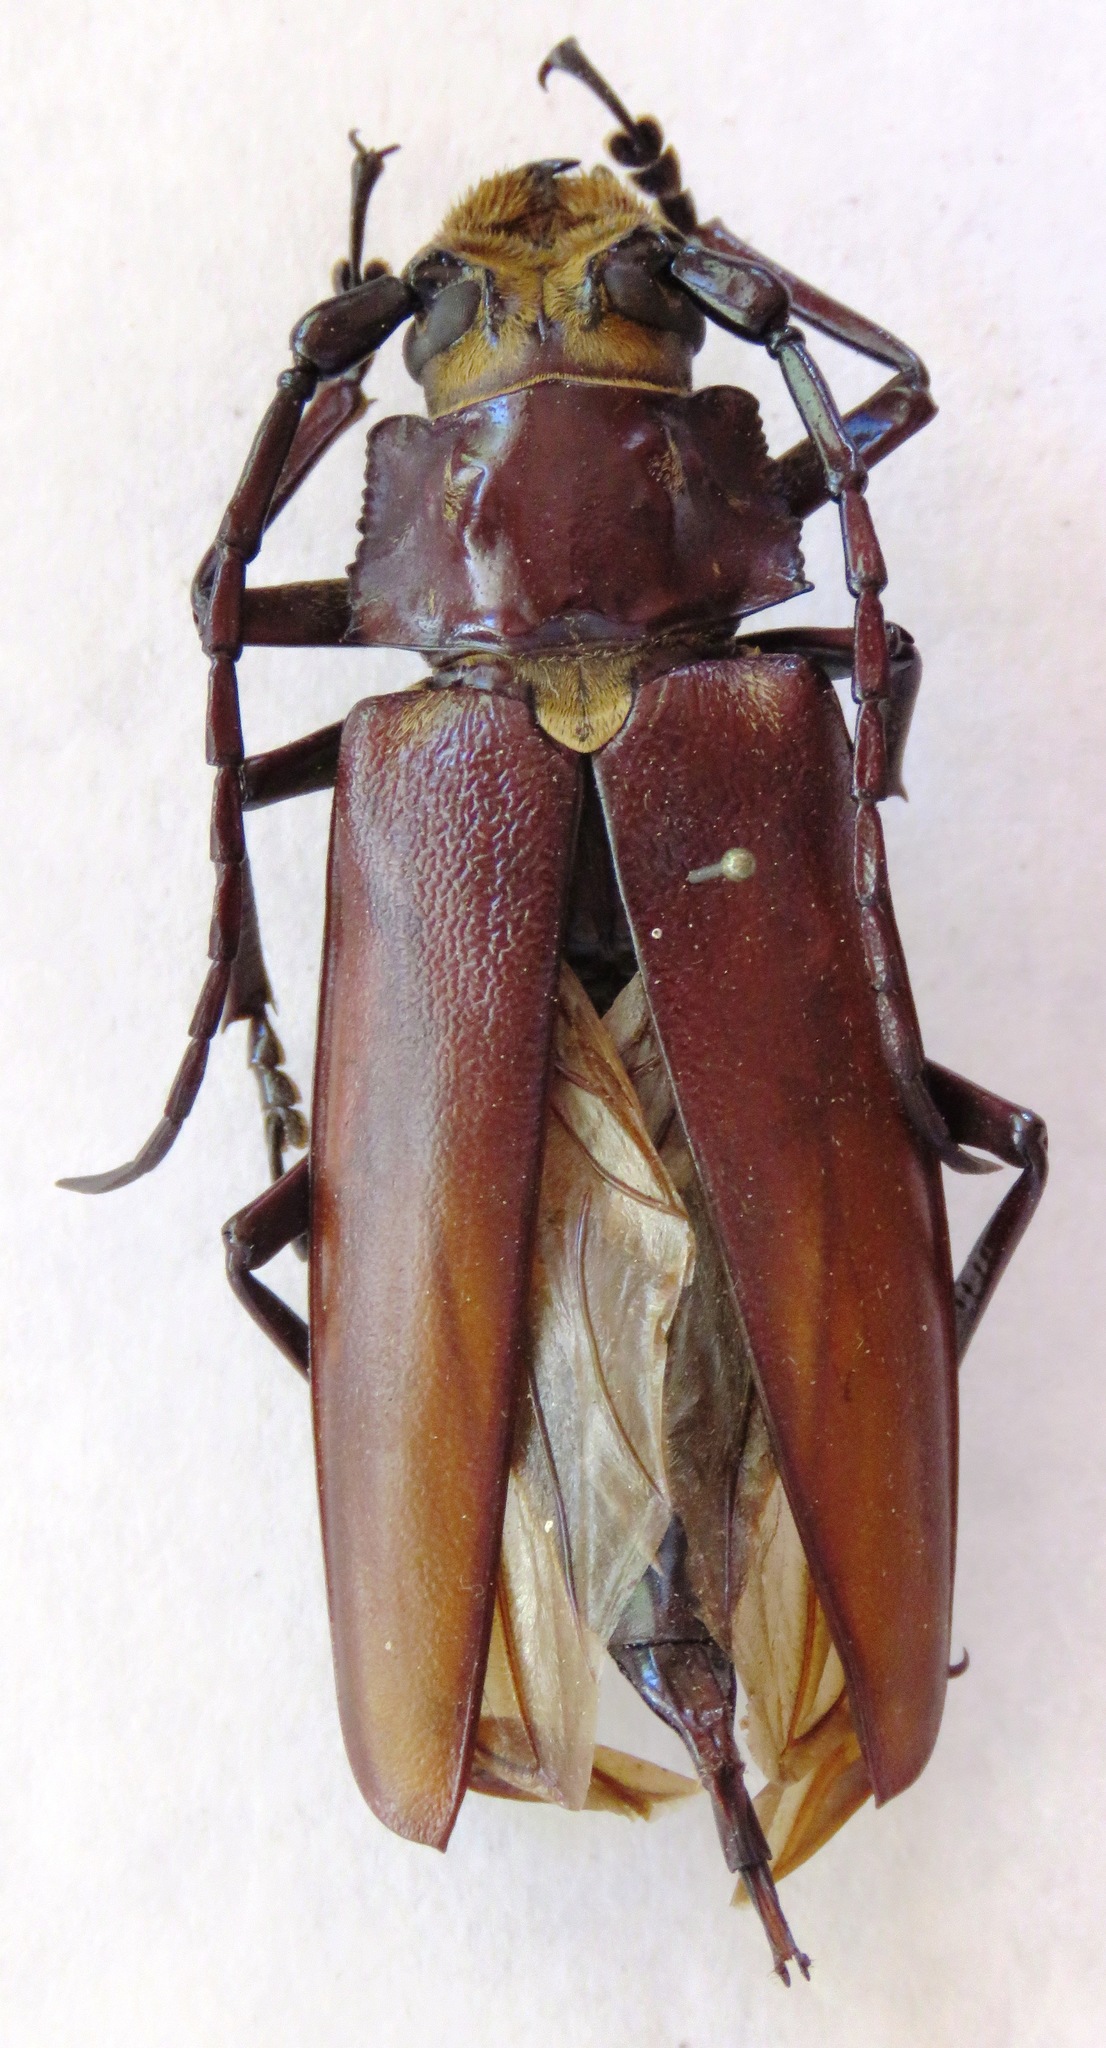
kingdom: Animalia
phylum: Arthropoda
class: Insecta
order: Coleoptera
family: Cerambycidae
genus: Callipogon
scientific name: Callipogon lemoinei
